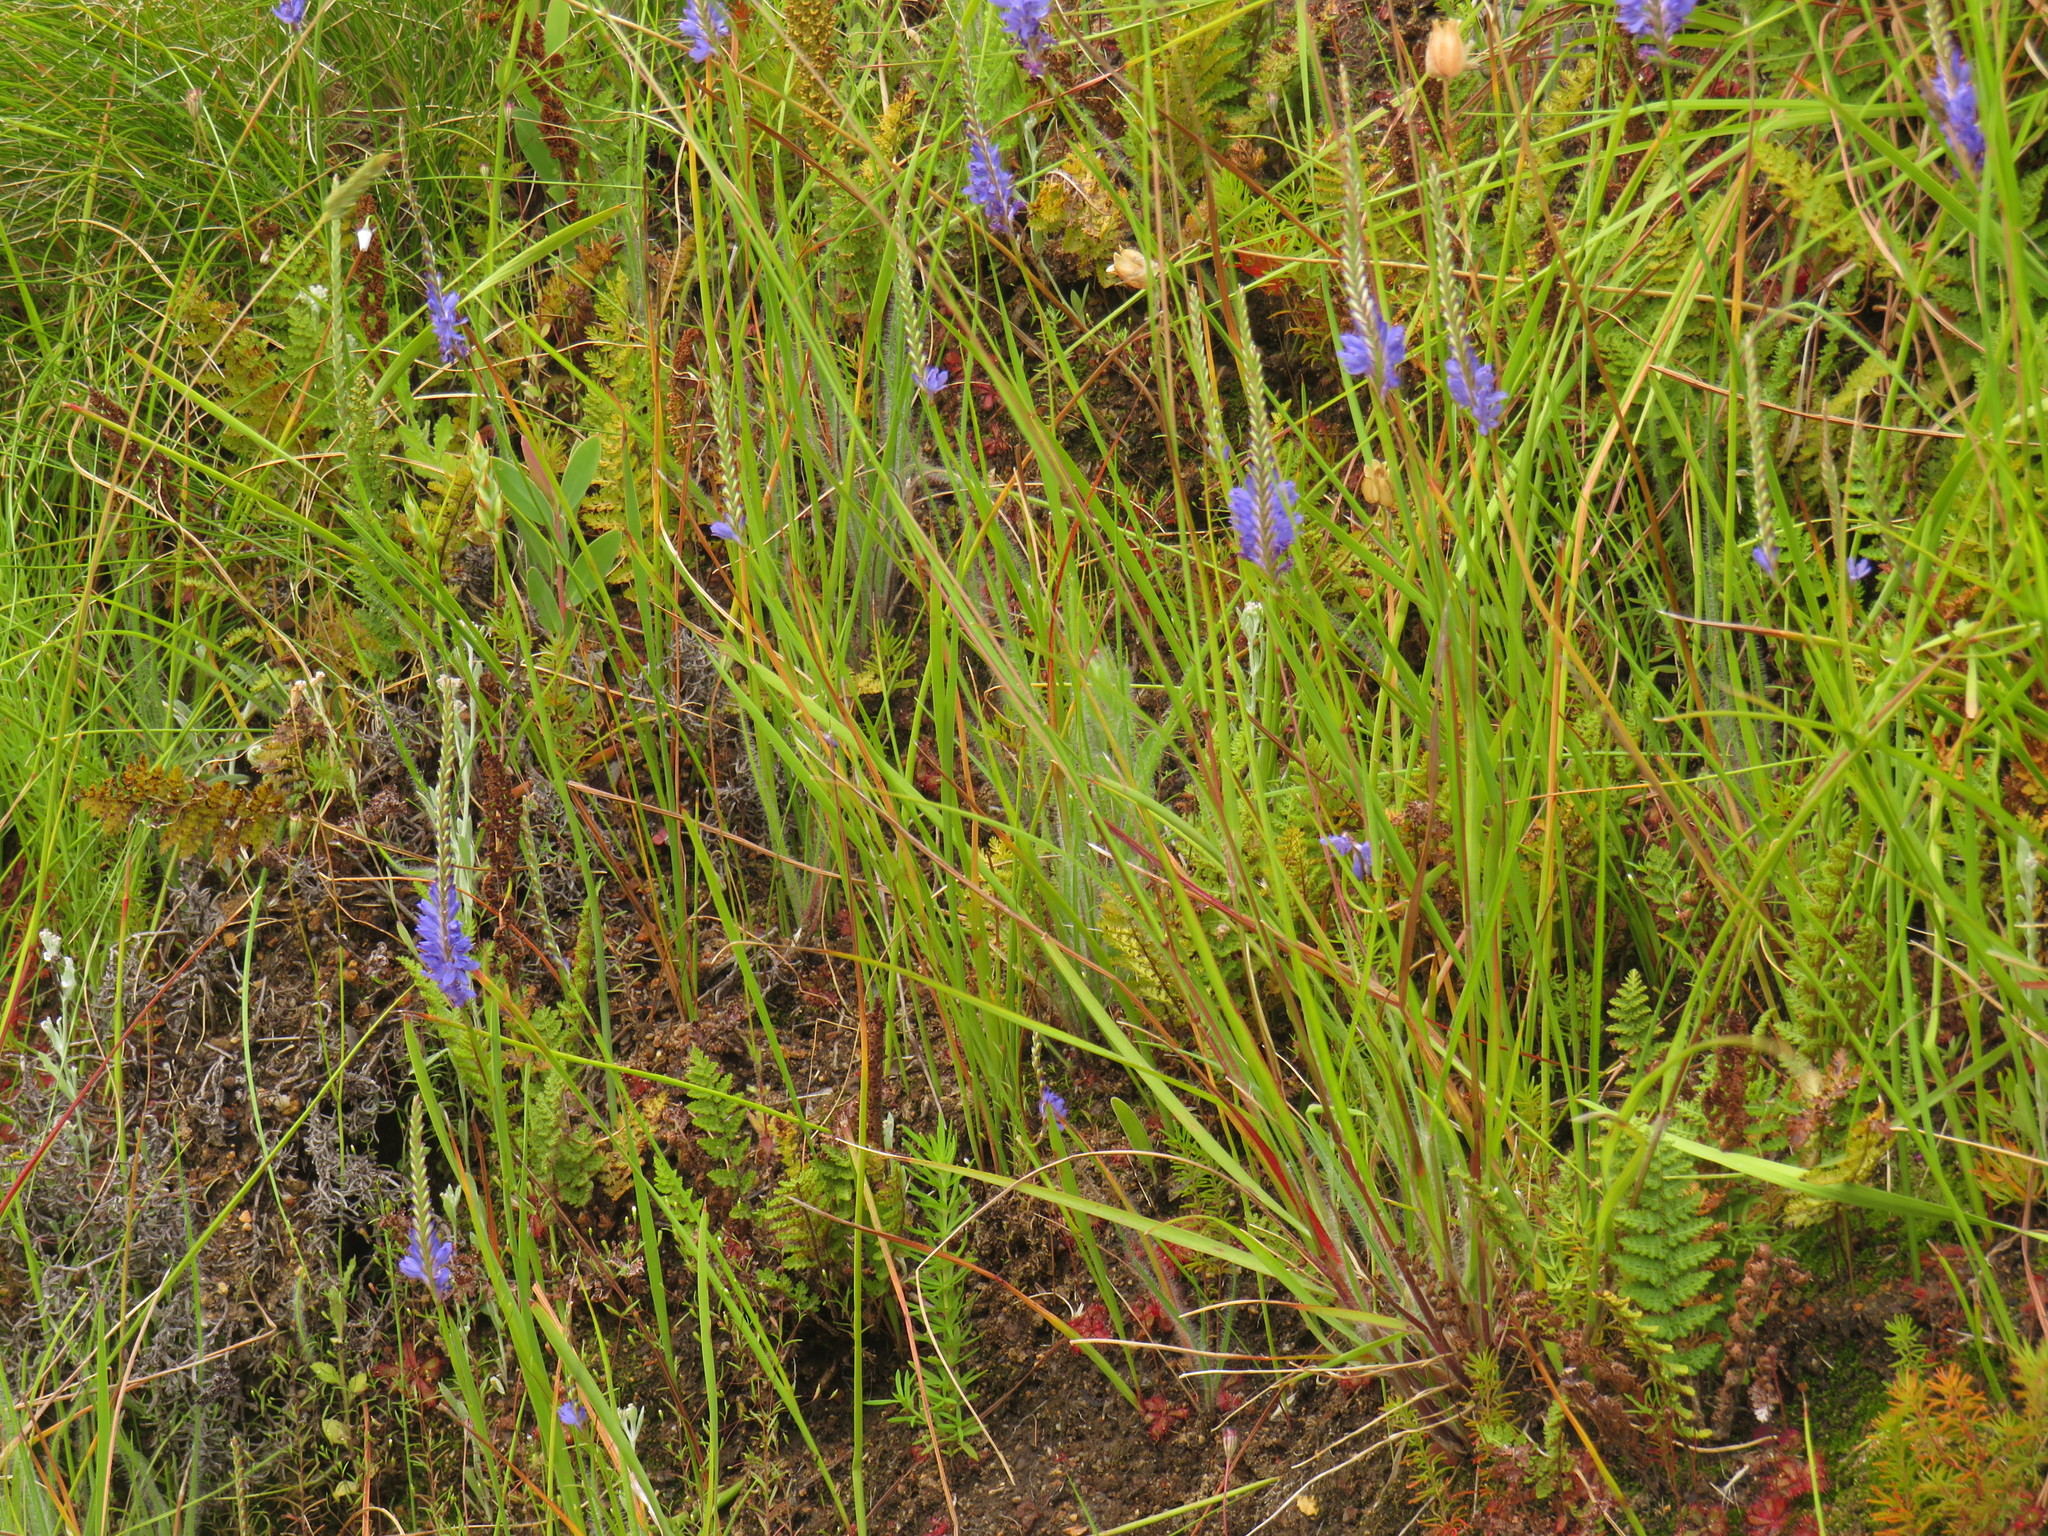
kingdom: Plantae
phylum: Tracheophyta
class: Liliopsida
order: Asparagales
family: Iridaceae
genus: Micranthus
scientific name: Micranthus plantagineus
